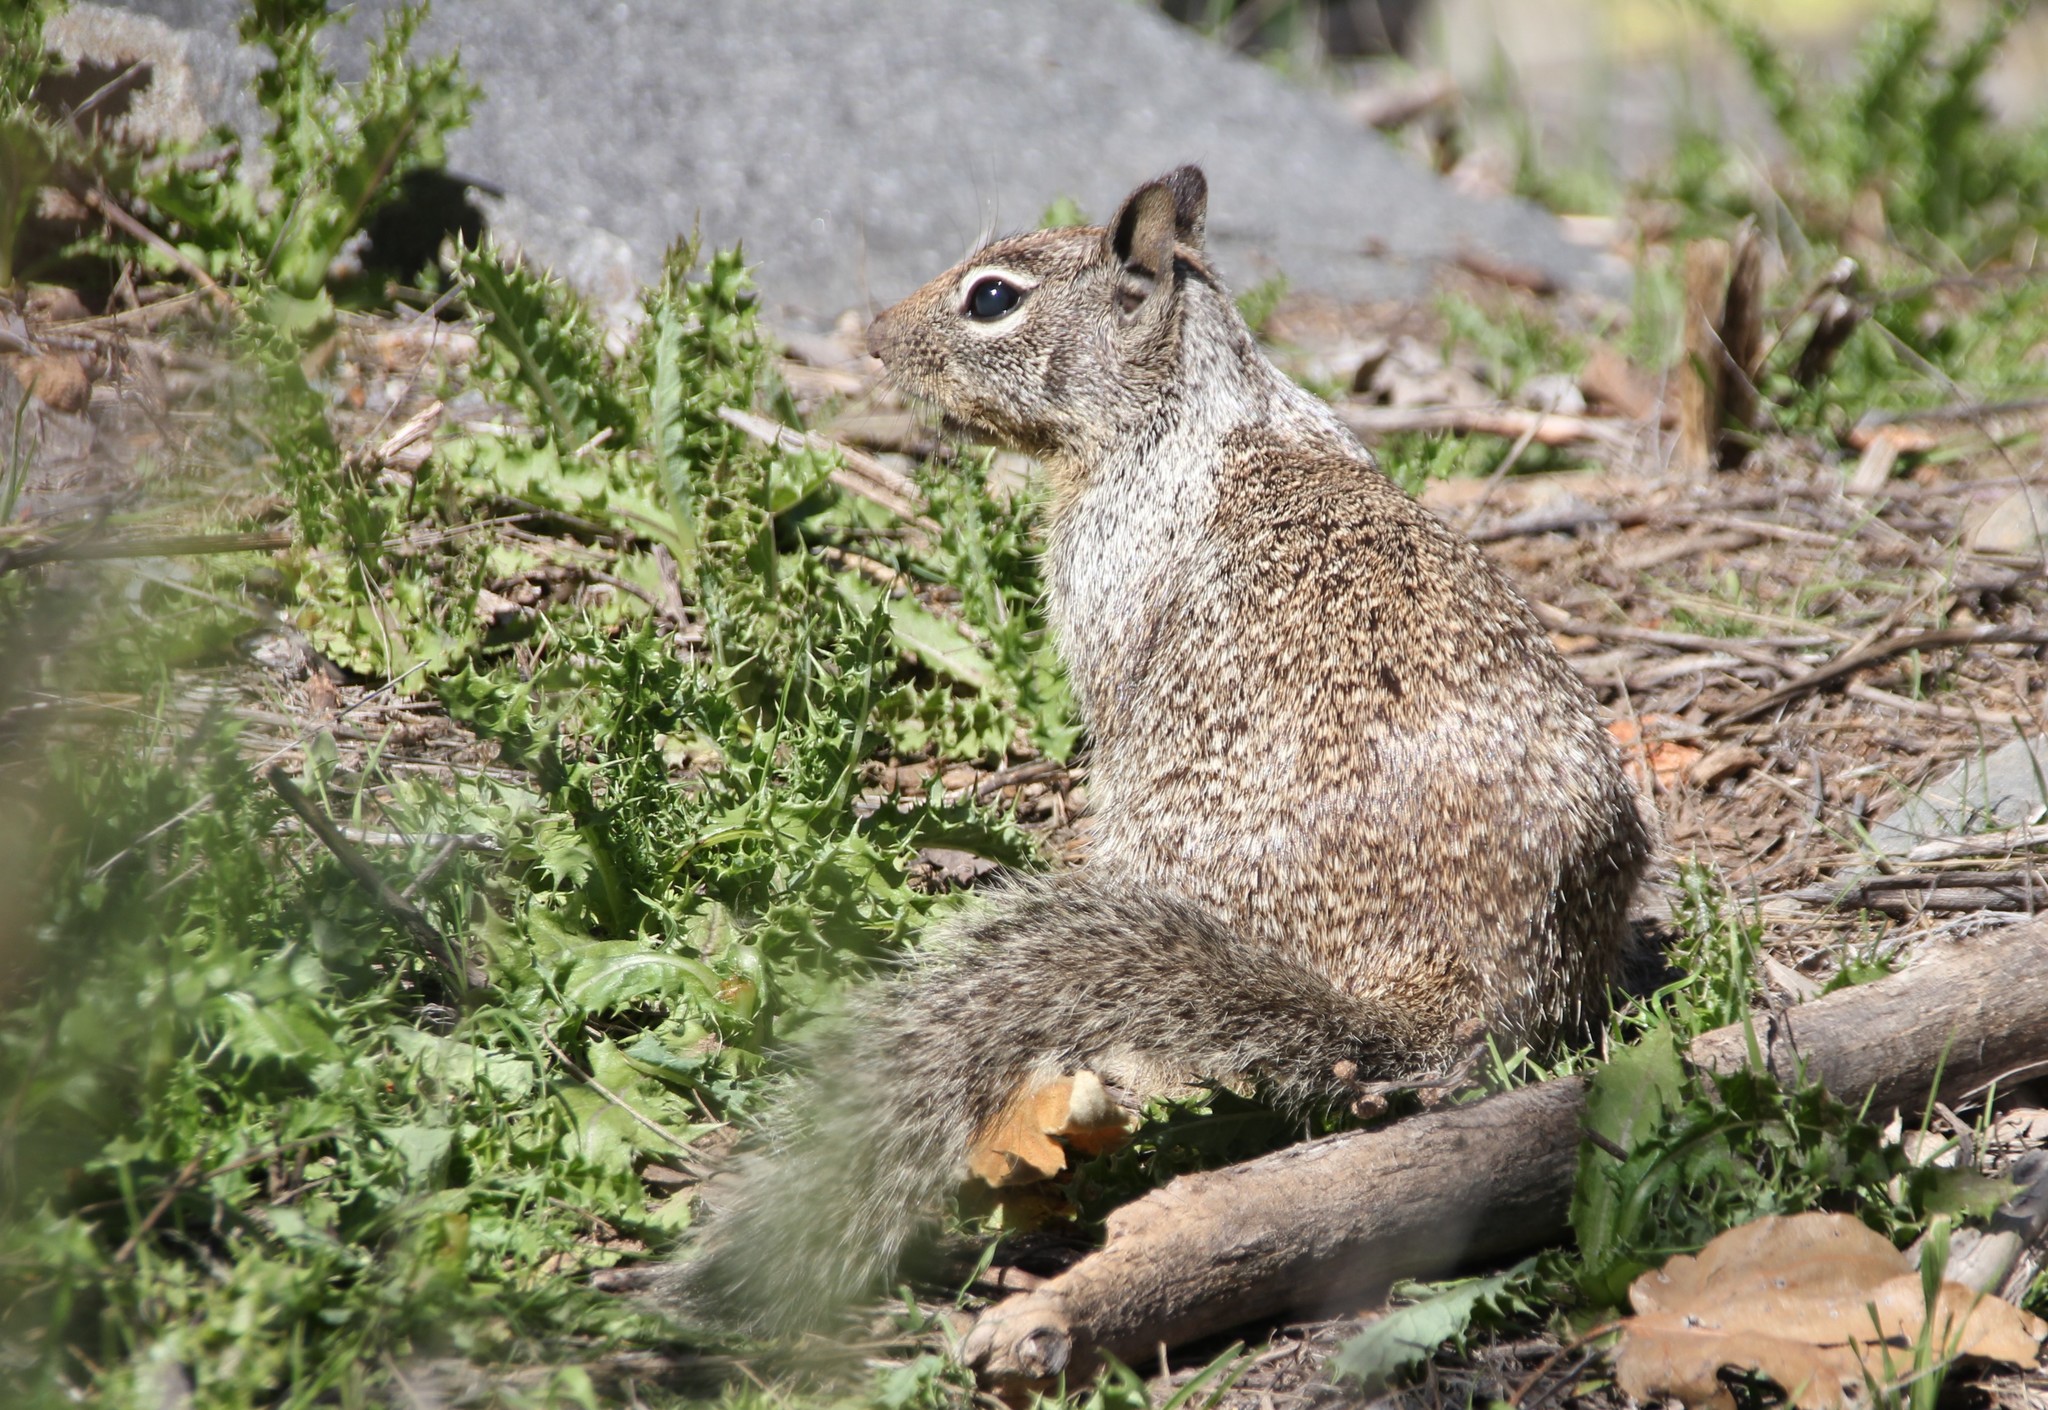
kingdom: Animalia
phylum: Chordata
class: Mammalia
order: Rodentia
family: Sciuridae
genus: Otospermophilus
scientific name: Otospermophilus beecheyi
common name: California ground squirrel
